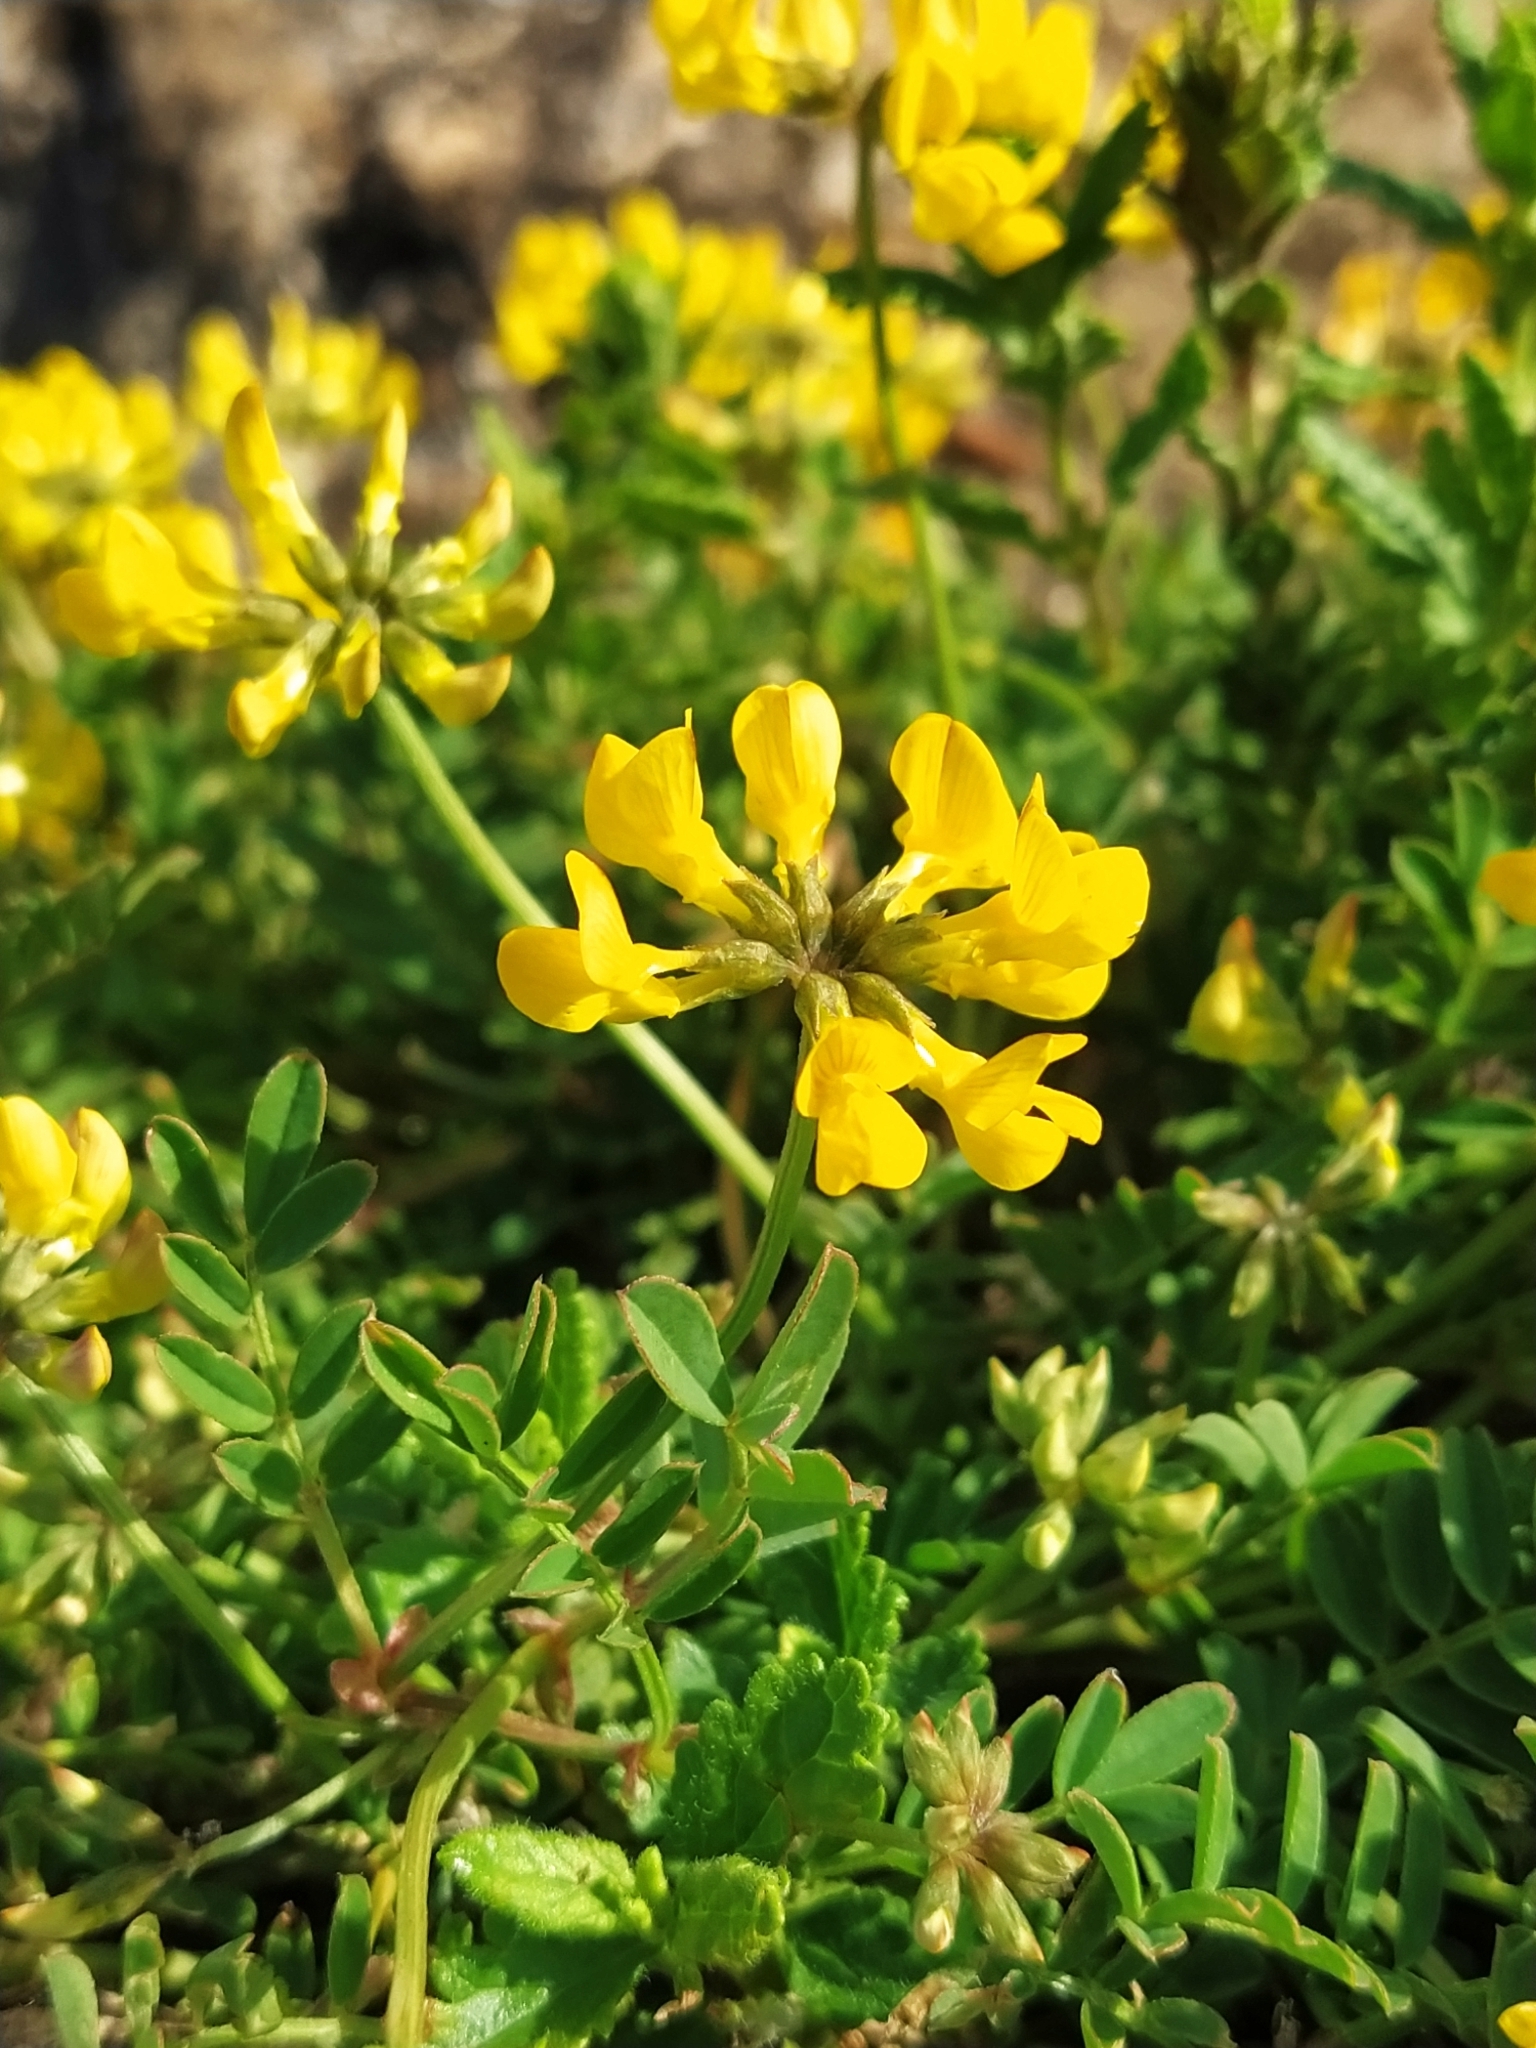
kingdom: Plantae
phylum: Tracheophyta
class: Magnoliopsida
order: Fabales
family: Fabaceae
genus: Hippocrepis
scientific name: Hippocrepis comosa
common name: Horseshoe vetch
